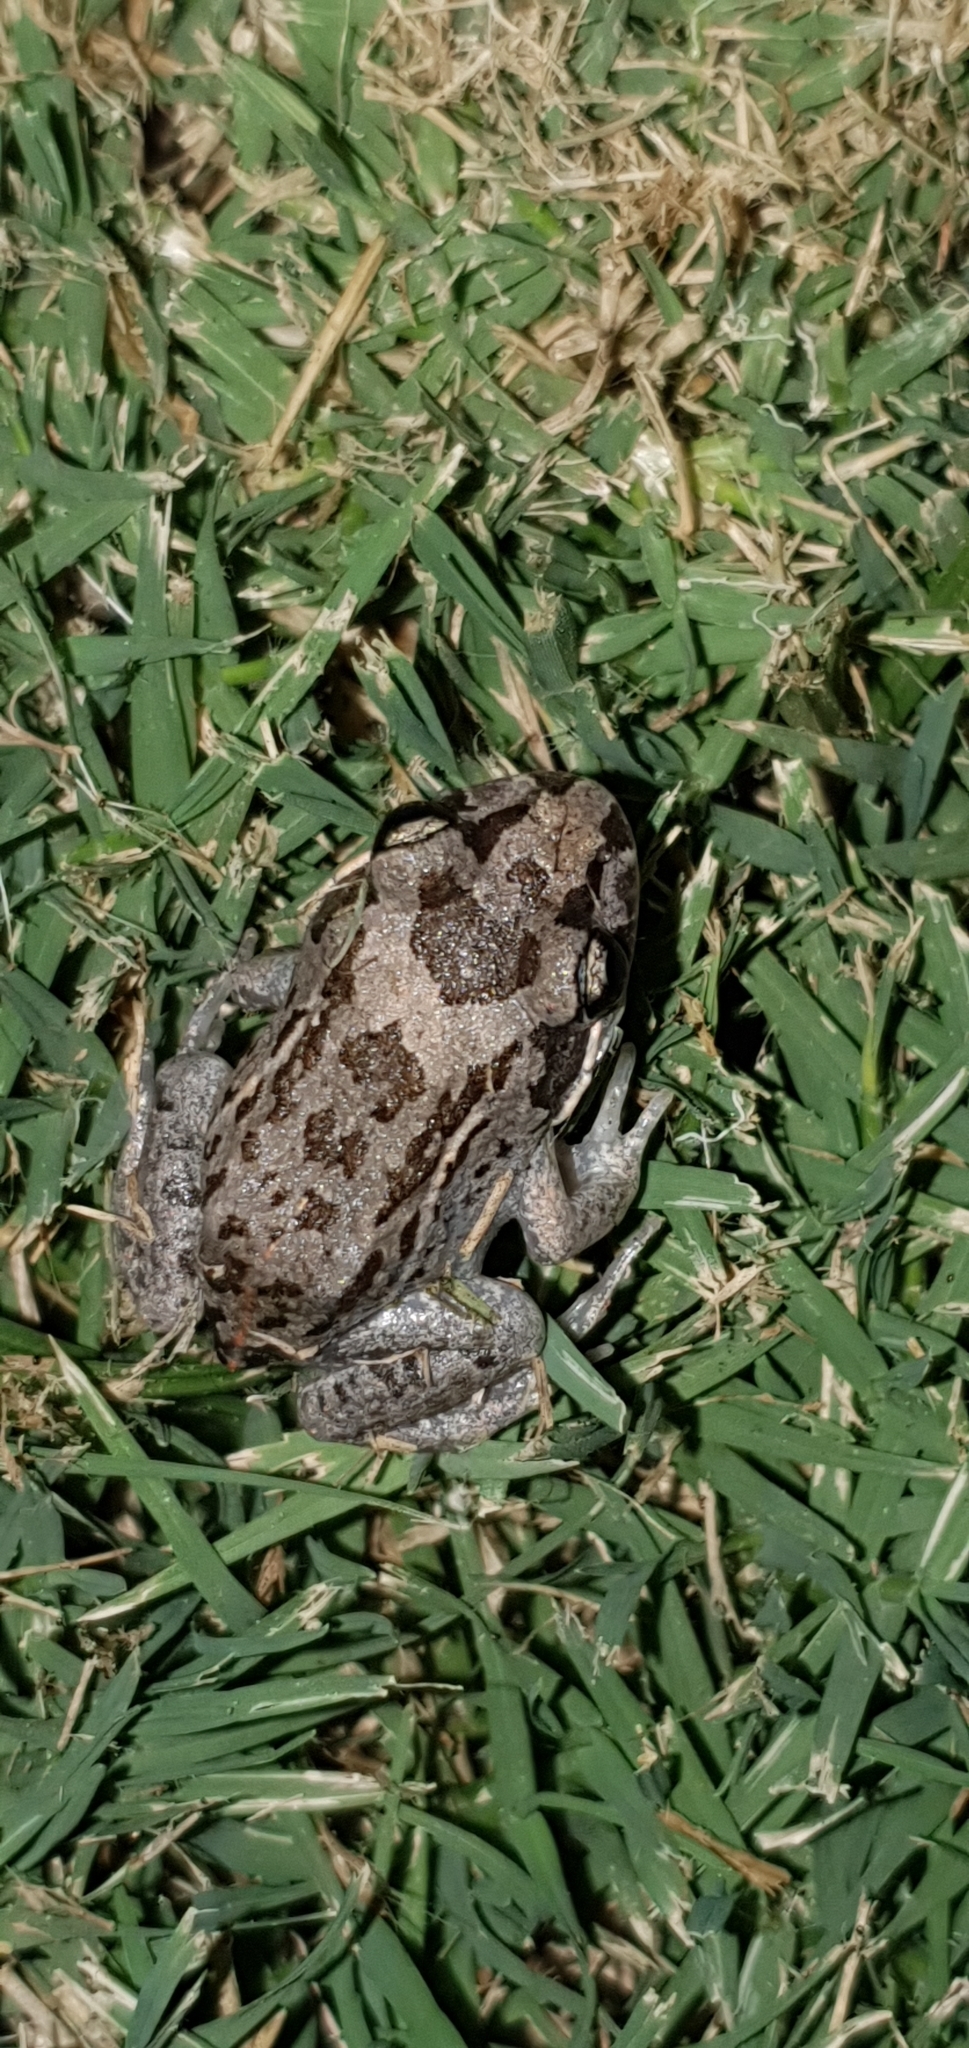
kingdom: Animalia
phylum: Chordata
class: Amphibia
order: Anura
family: Limnodynastidae
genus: Limnodynastes
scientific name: Limnodynastes salmini
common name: Salmon-striped frog
